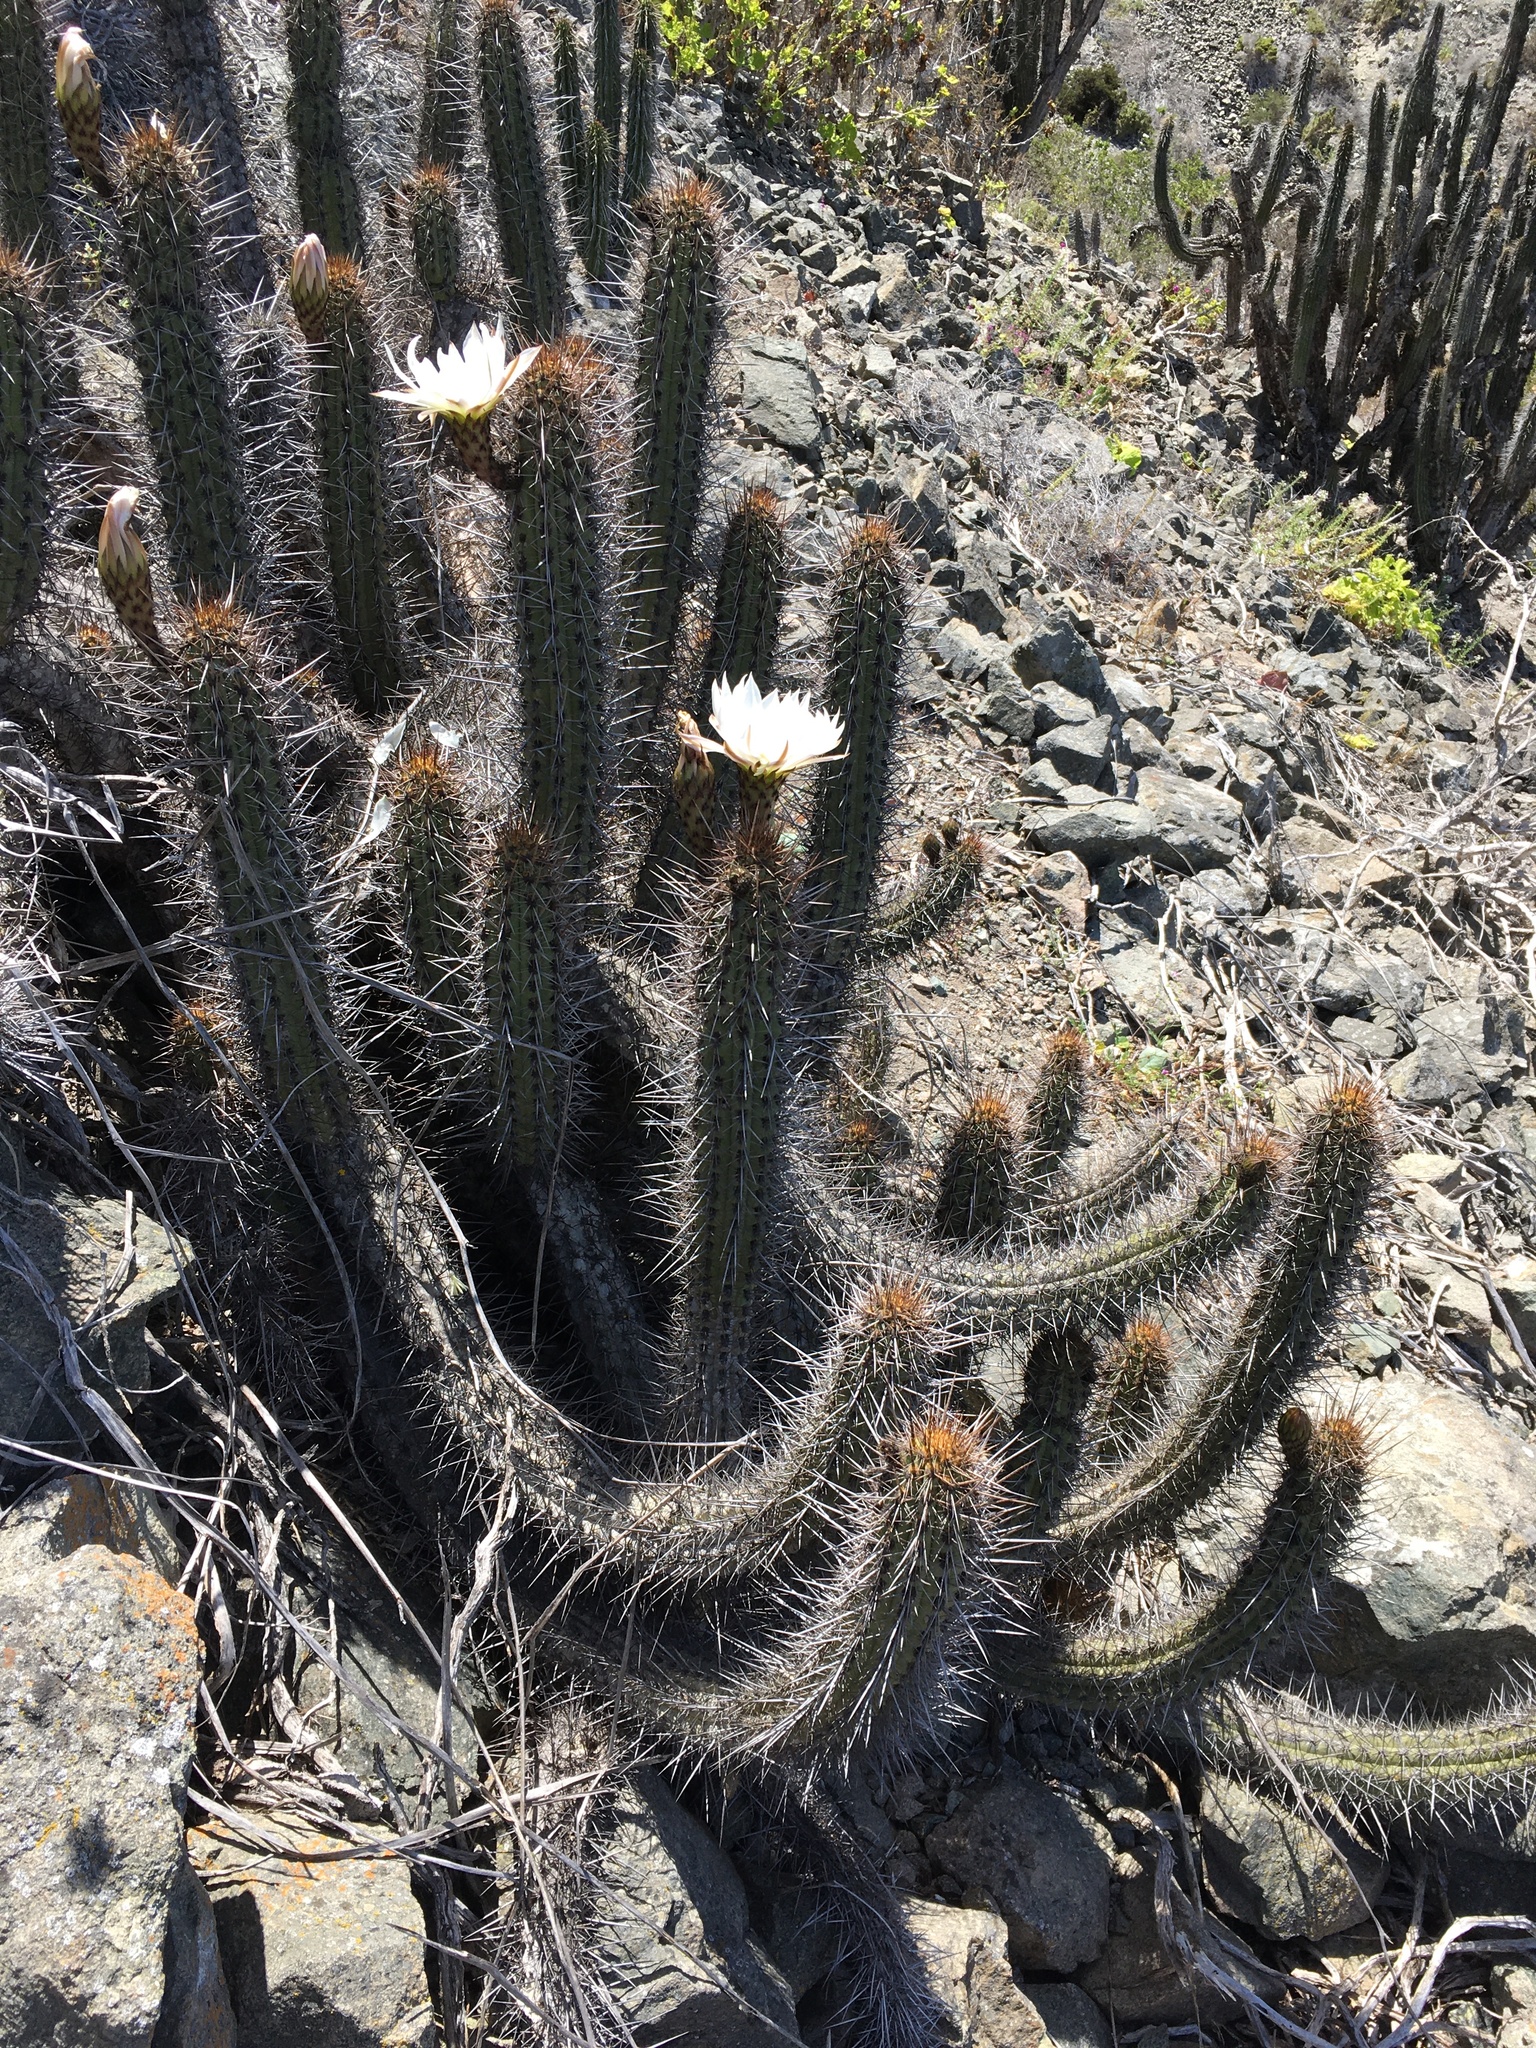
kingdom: Plantae
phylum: Tracheophyta
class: Magnoliopsida
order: Caryophyllales
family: Cactaceae
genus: Leucostele
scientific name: Leucostele deserticola
